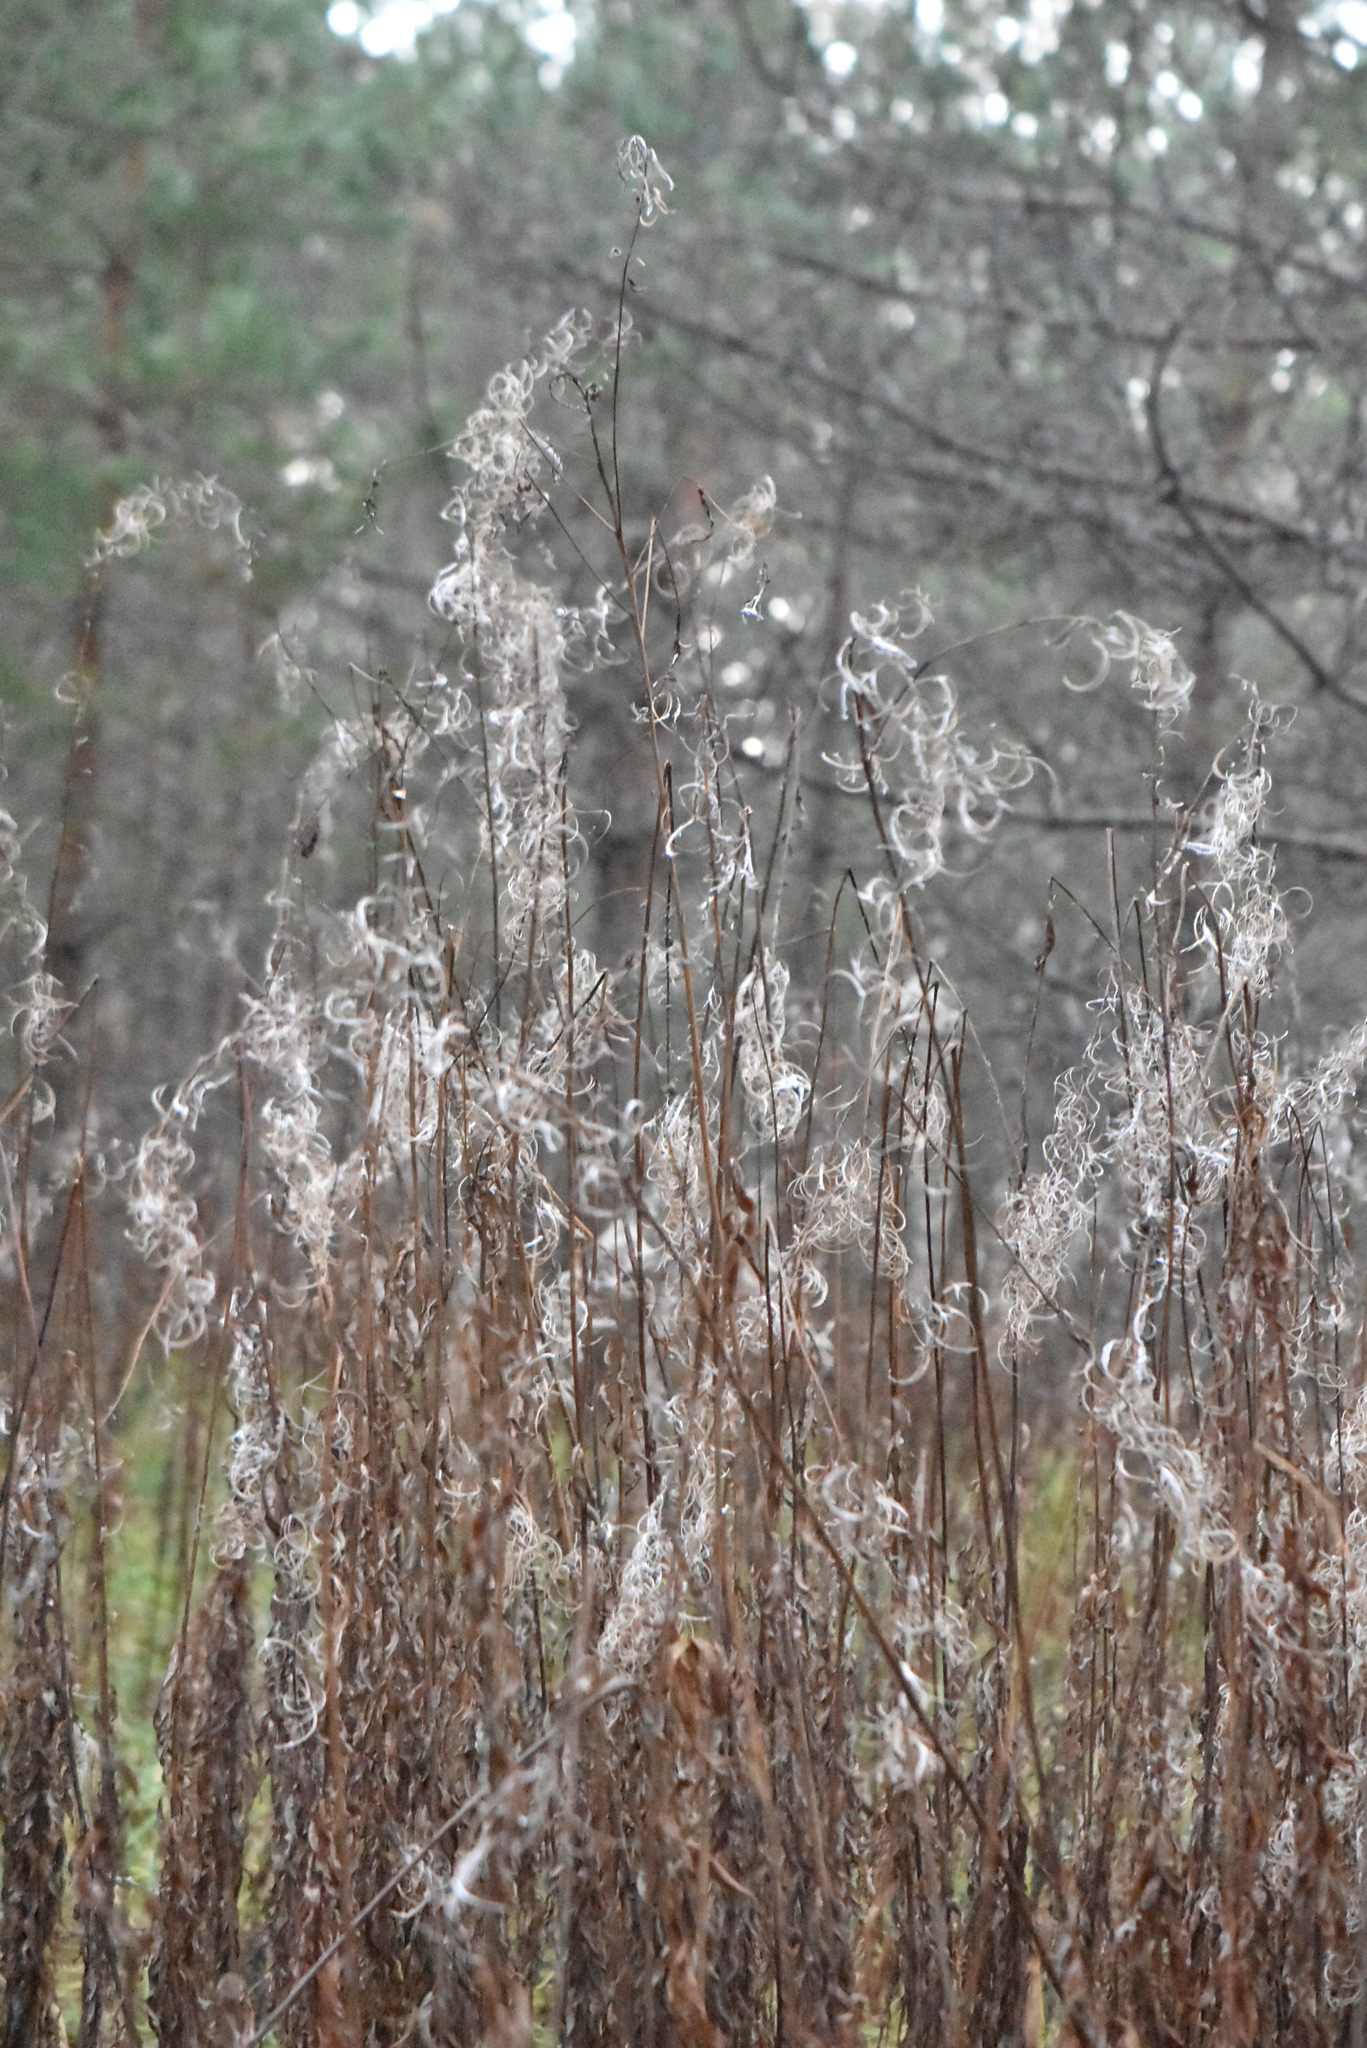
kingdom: Plantae
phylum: Tracheophyta
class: Magnoliopsida
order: Myrtales
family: Onagraceae
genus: Chamaenerion
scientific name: Chamaenerion angustifolium
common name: Fireweed
